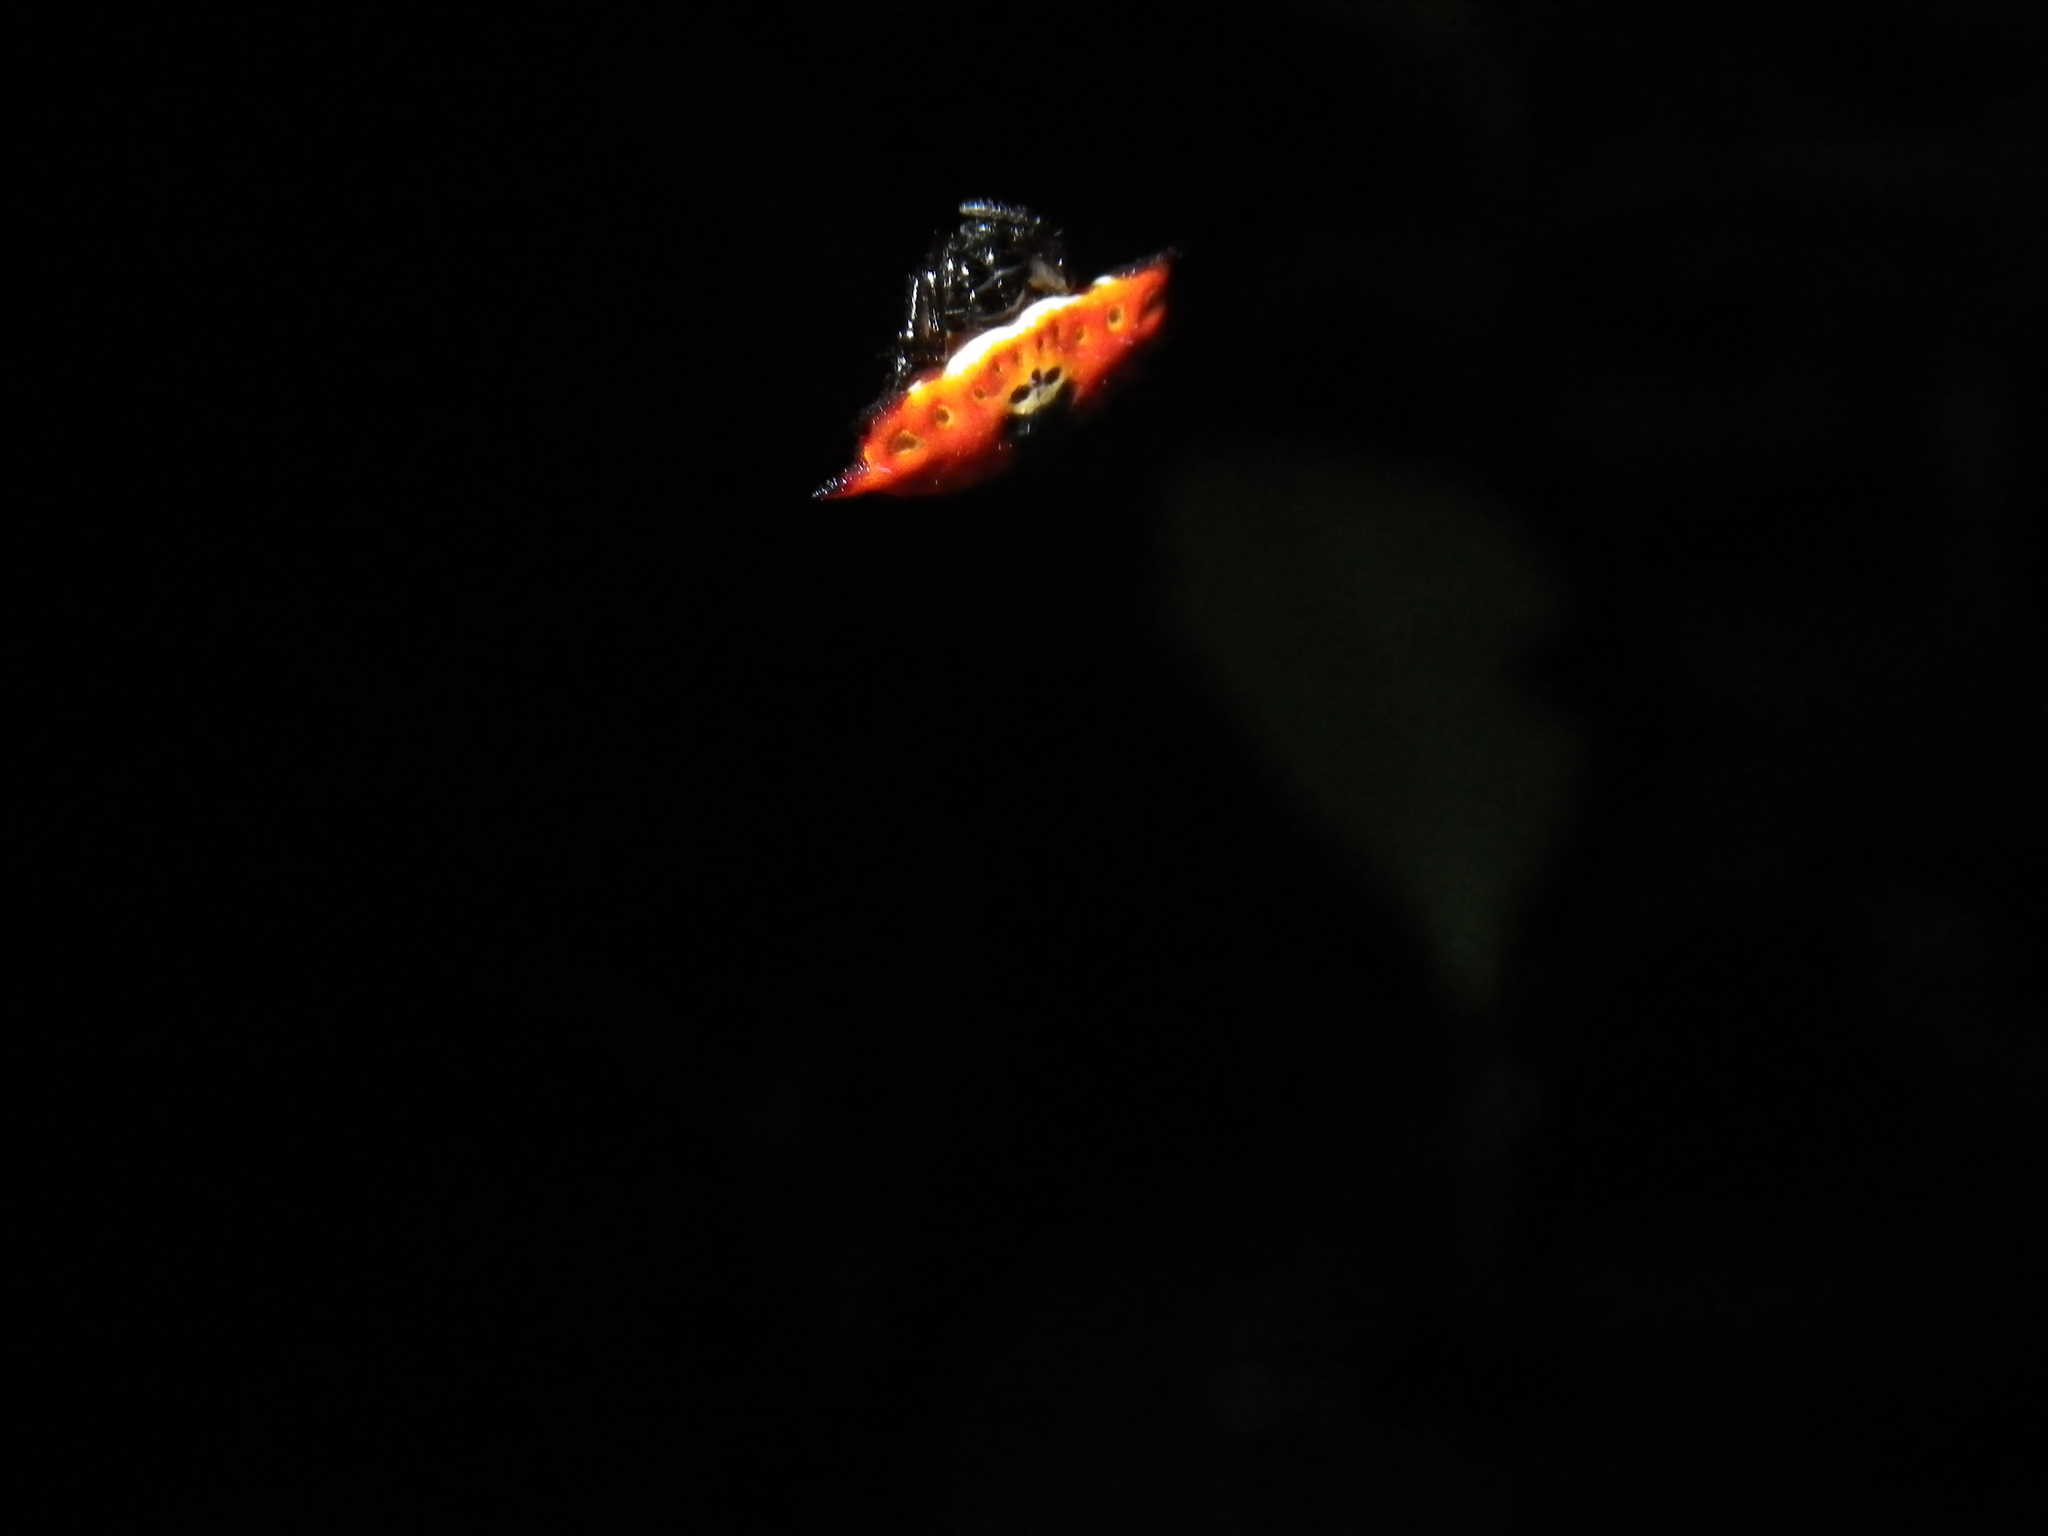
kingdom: Animalia
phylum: Arthropoda
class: Arachnida
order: Araneae
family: Araneidae
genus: Gasteracantha
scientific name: Gasteracantha quadrispinosa
